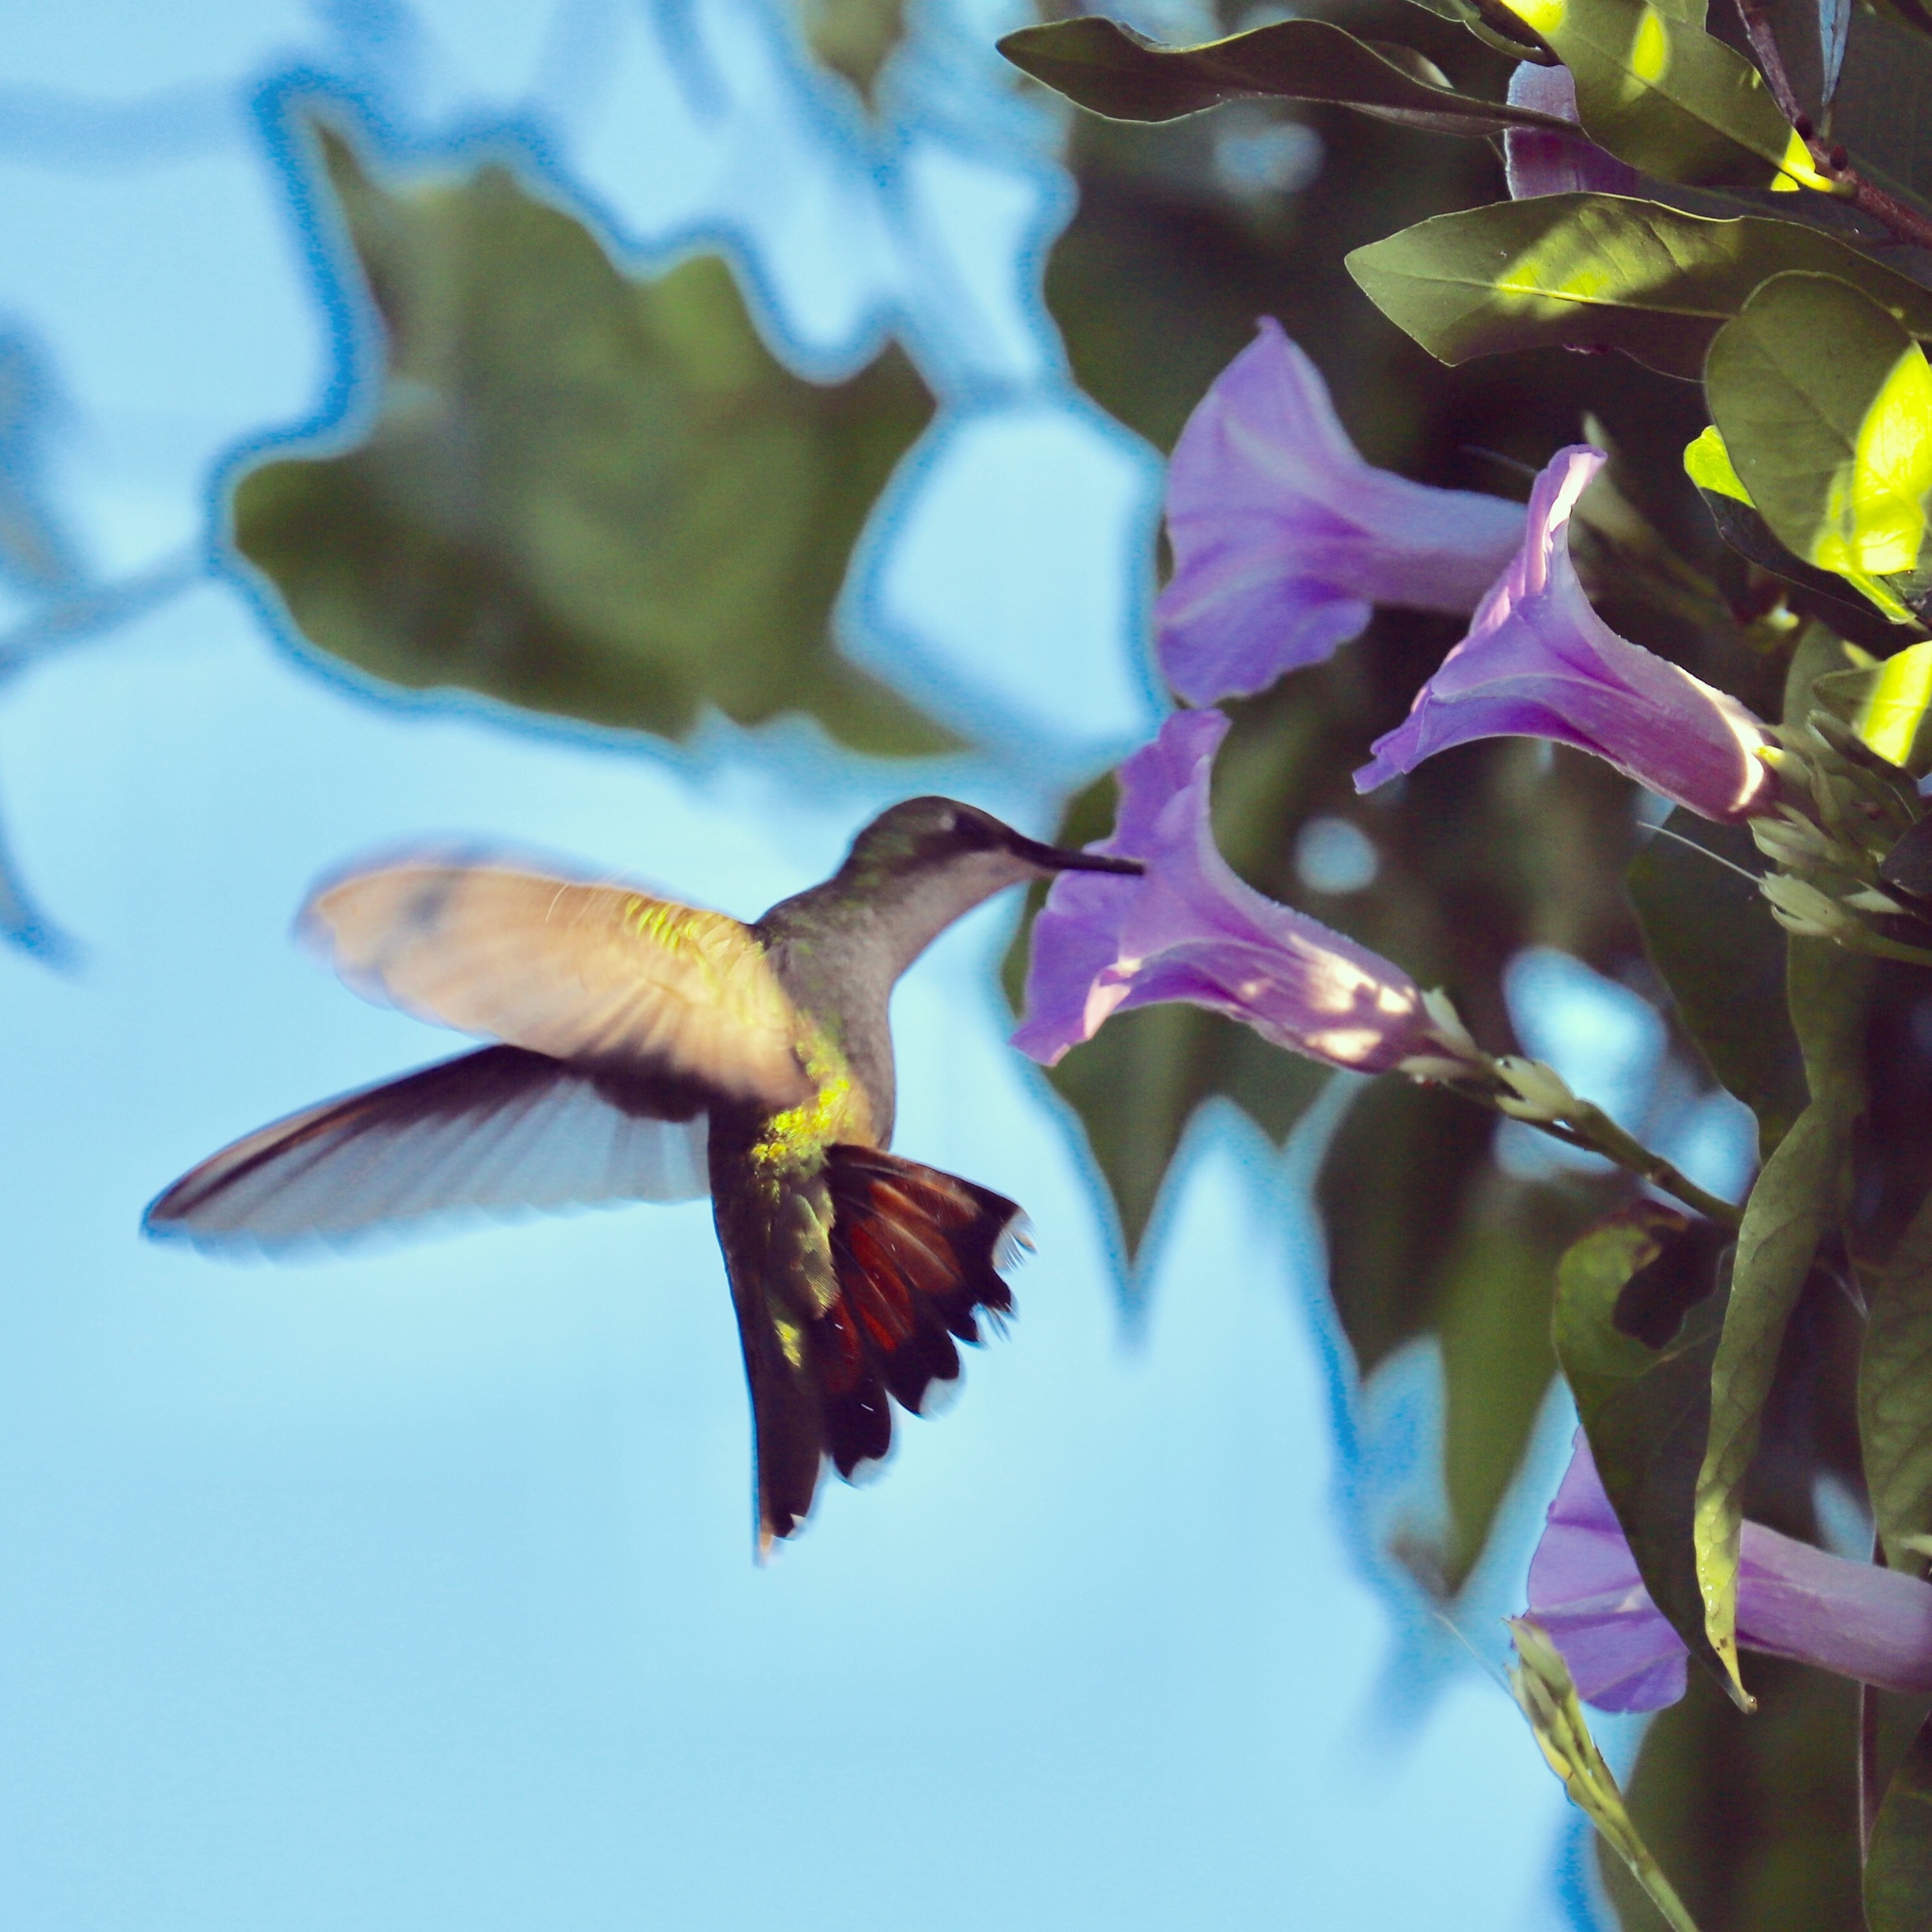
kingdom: Animalia
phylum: Chordata
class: Aves
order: Apodiformes
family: Trochilidae
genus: Anthracothorax
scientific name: Anthracothorax dominicus
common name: Antillean mango
